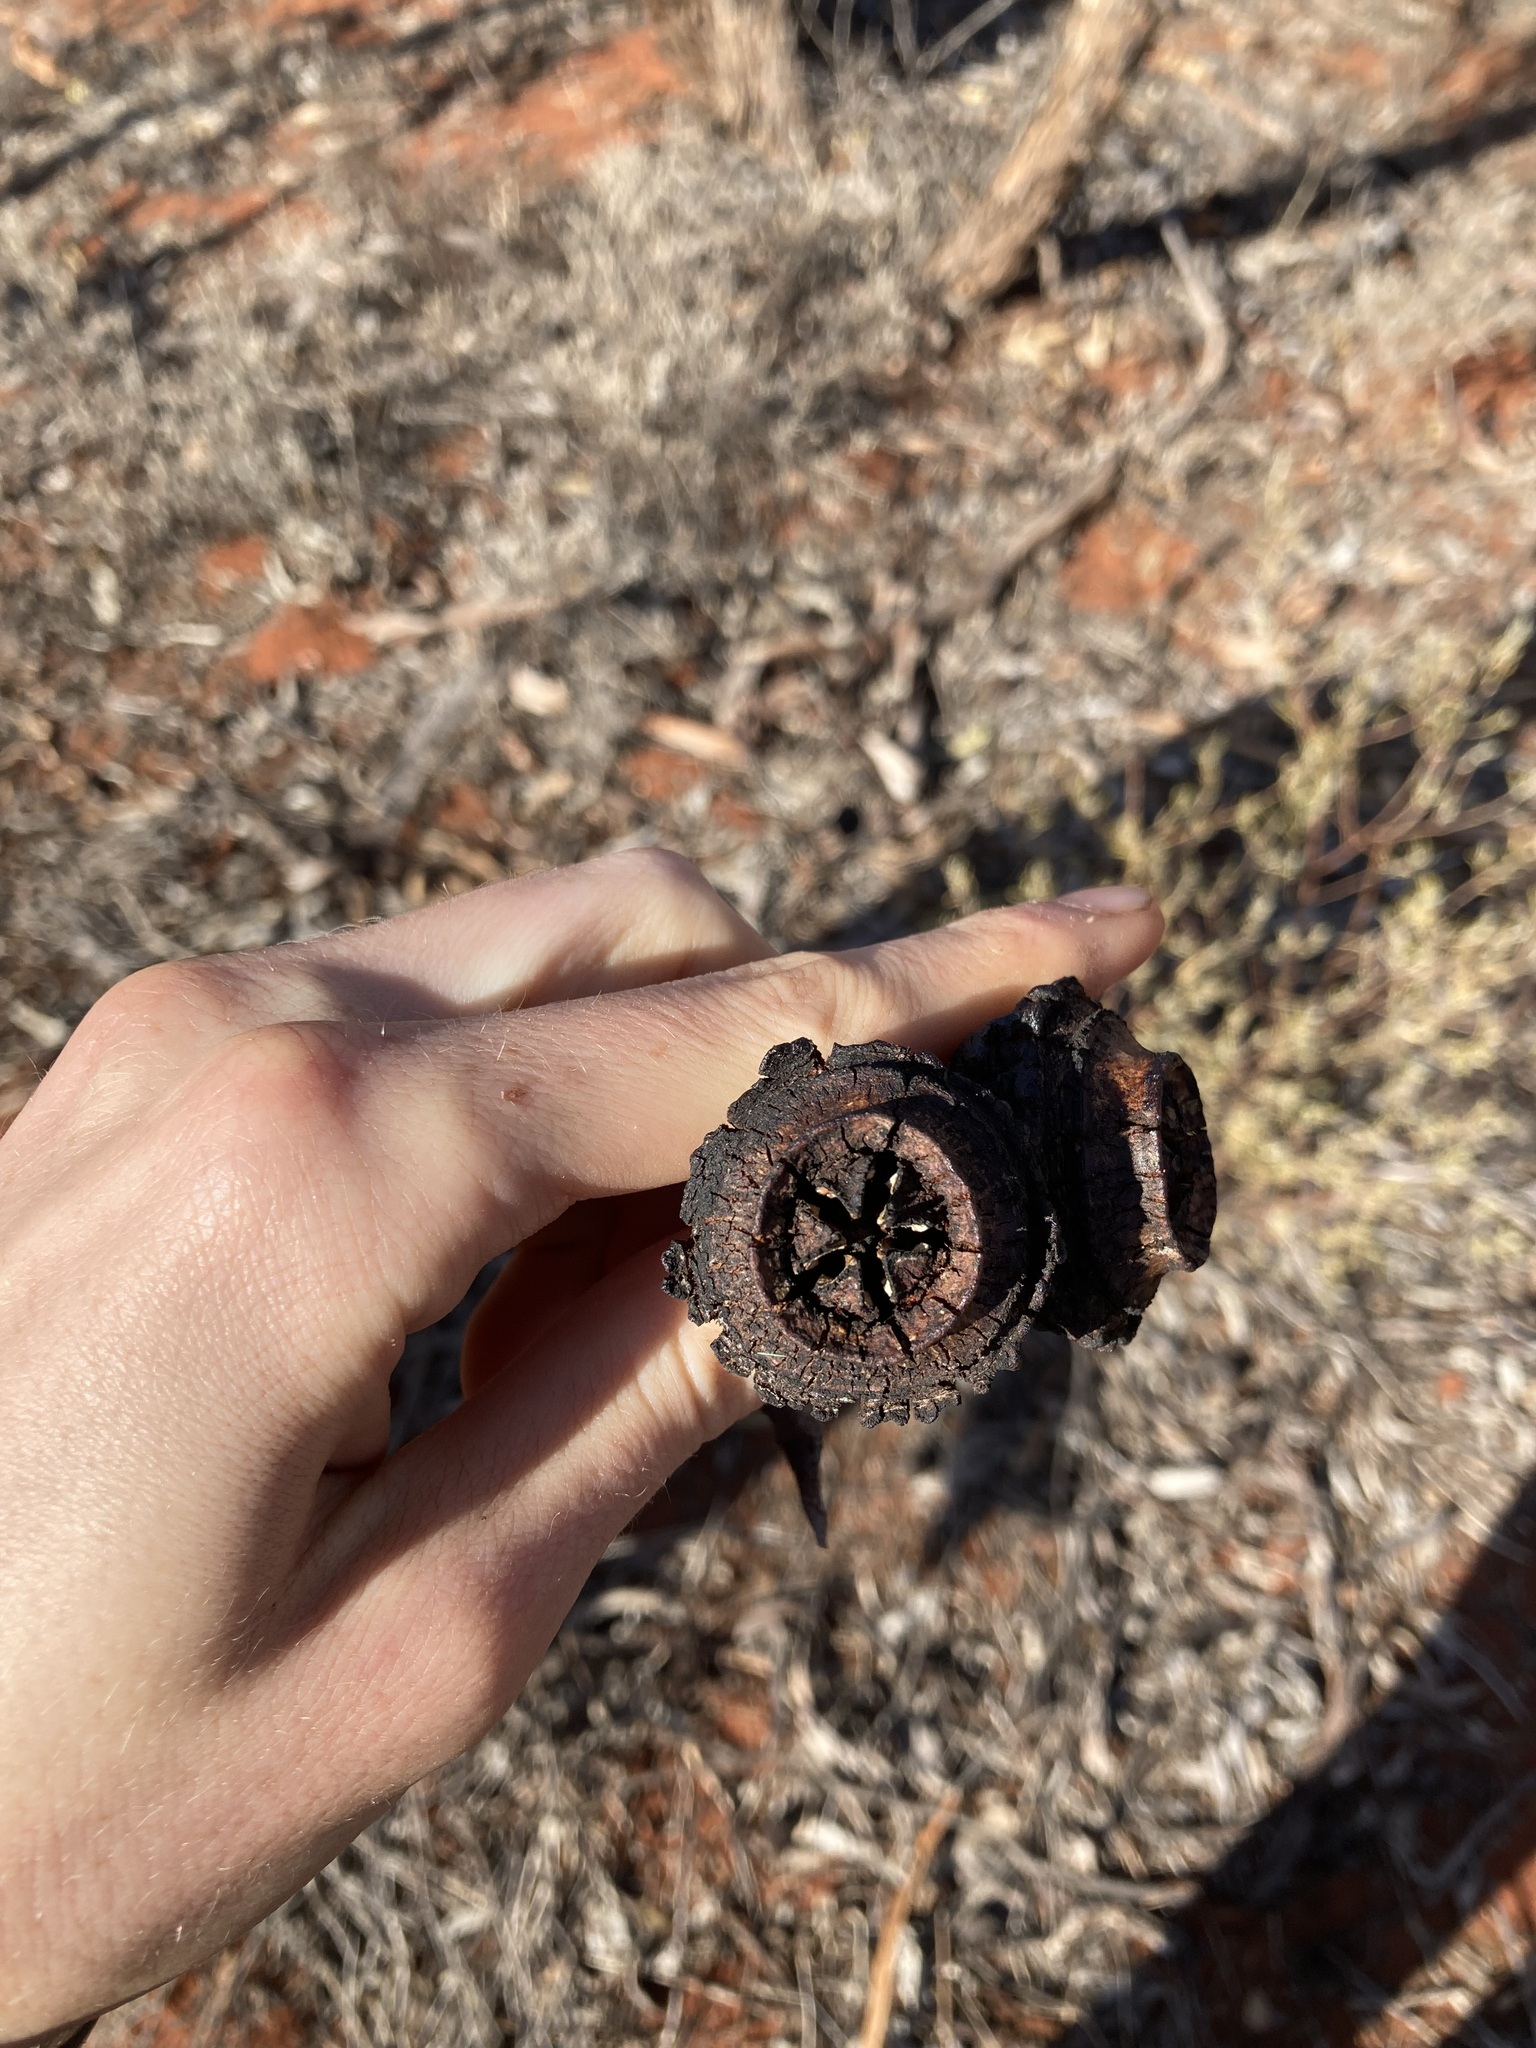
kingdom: Plantae
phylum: Tracheophyta
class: Magnoliopsida
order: Myrtales
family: Myrtaceae
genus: Eucalyptus
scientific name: Eucalyptus youngiana
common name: Large-fruit mallee
